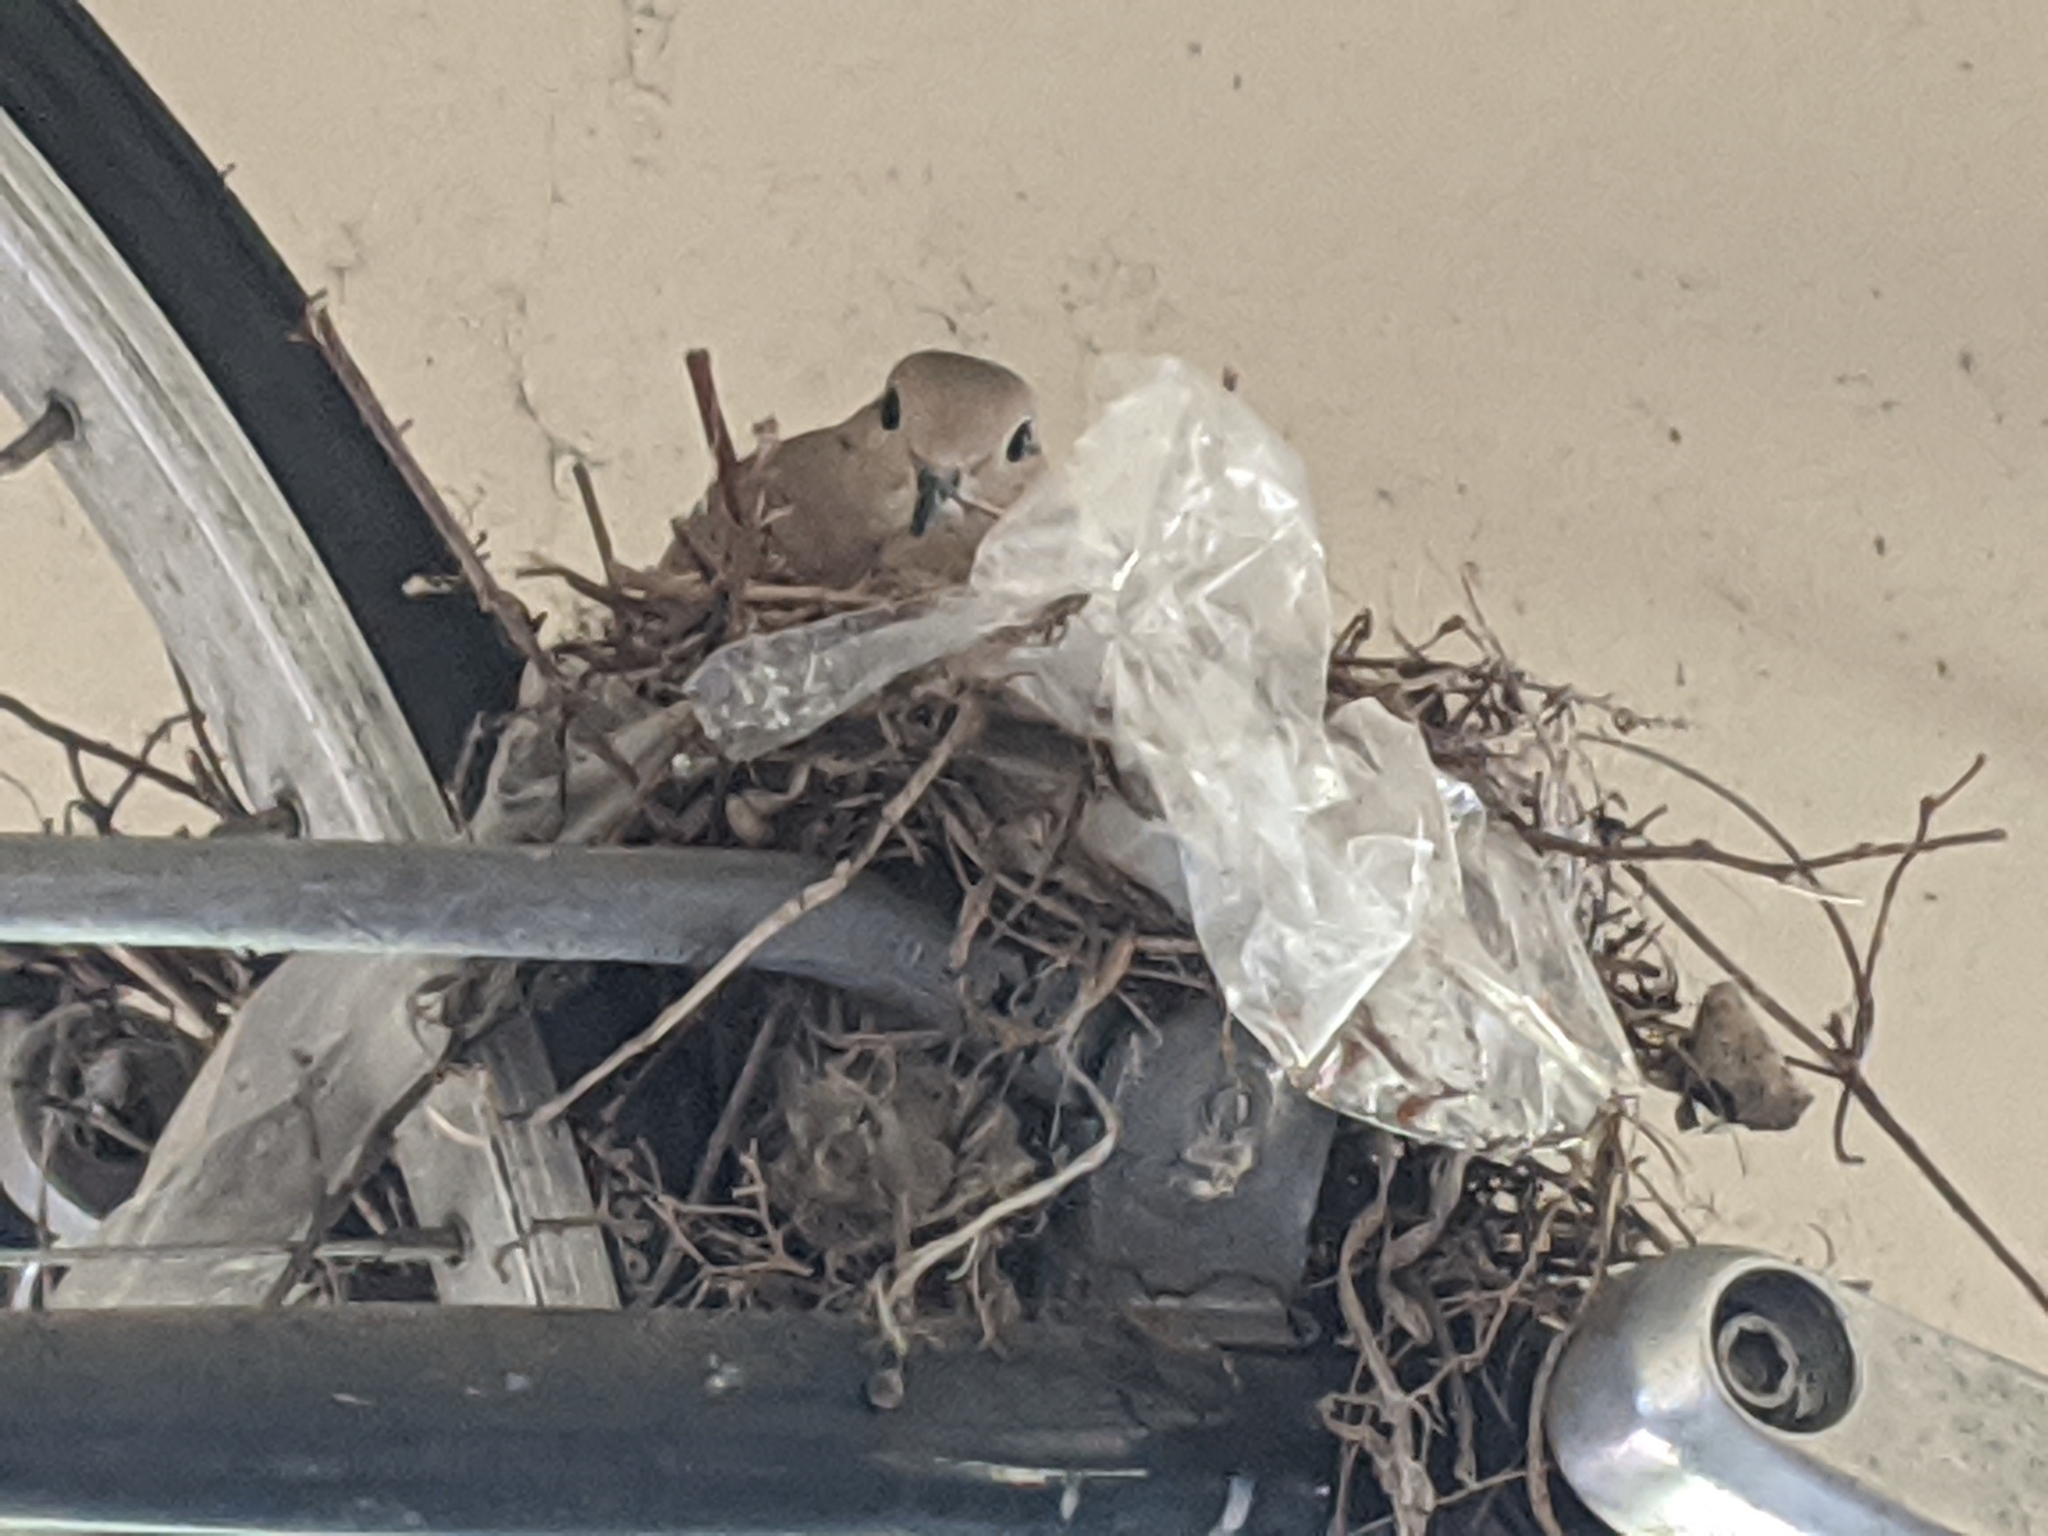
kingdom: Animalia
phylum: Chordata
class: Aves
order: Columbiformes
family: Columbidae
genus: Zenaida
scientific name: Zenaida macroura
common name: Mourning dove
